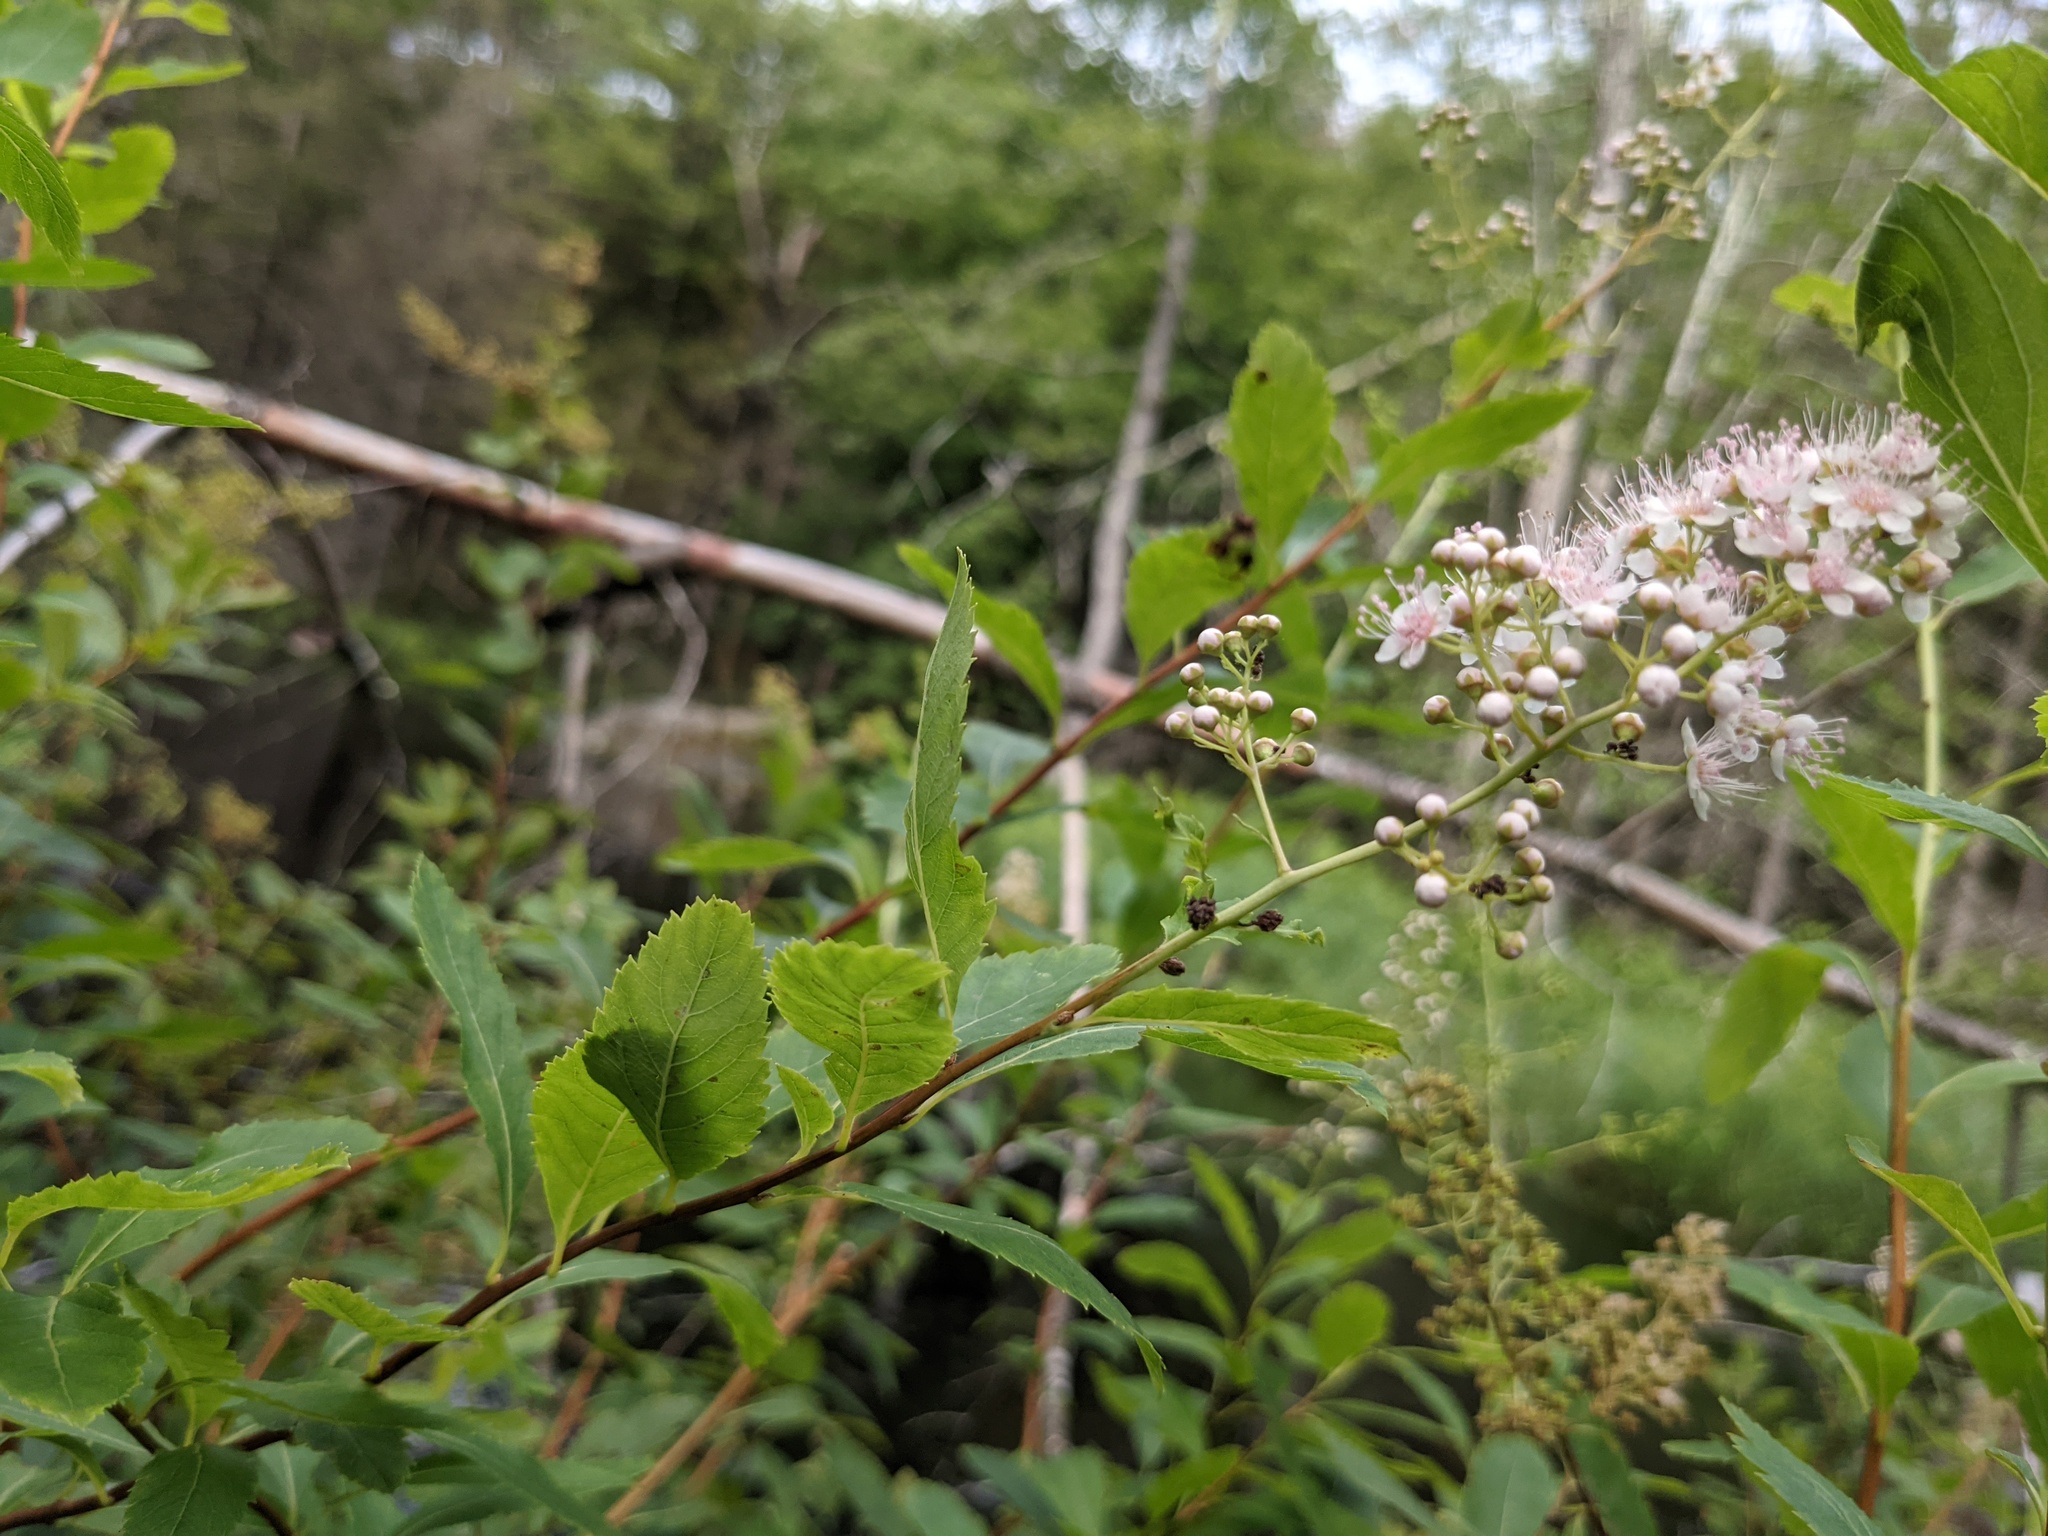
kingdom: Plantae
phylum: Tracheophyta
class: Magnoliopsida
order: Rosales
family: Rosaceae
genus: Spiraea
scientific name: Spiraea alba
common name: Pale bridewort
